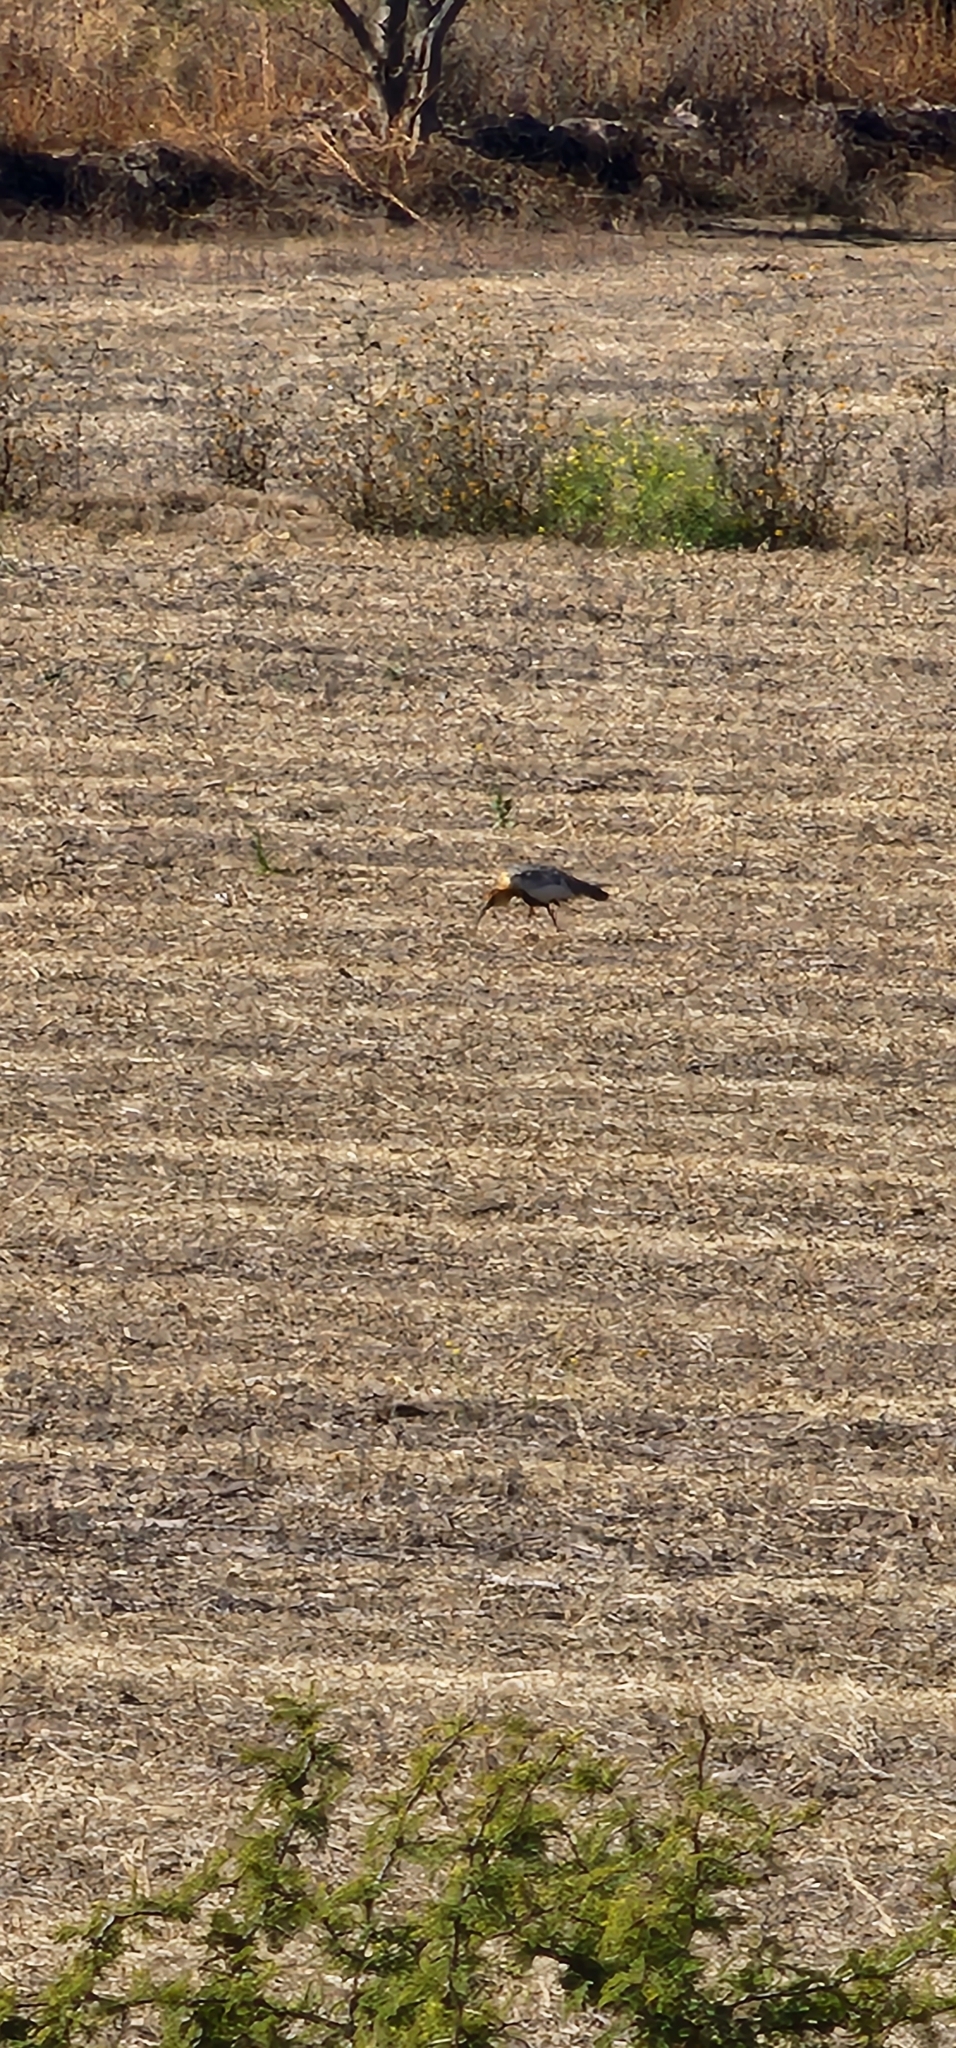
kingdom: Animalia
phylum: Chordata
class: Aves
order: Pelecaniformes
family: Threskiornithidae
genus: Theristicus
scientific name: Theristicus caudatus
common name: Buff-necked ibis
